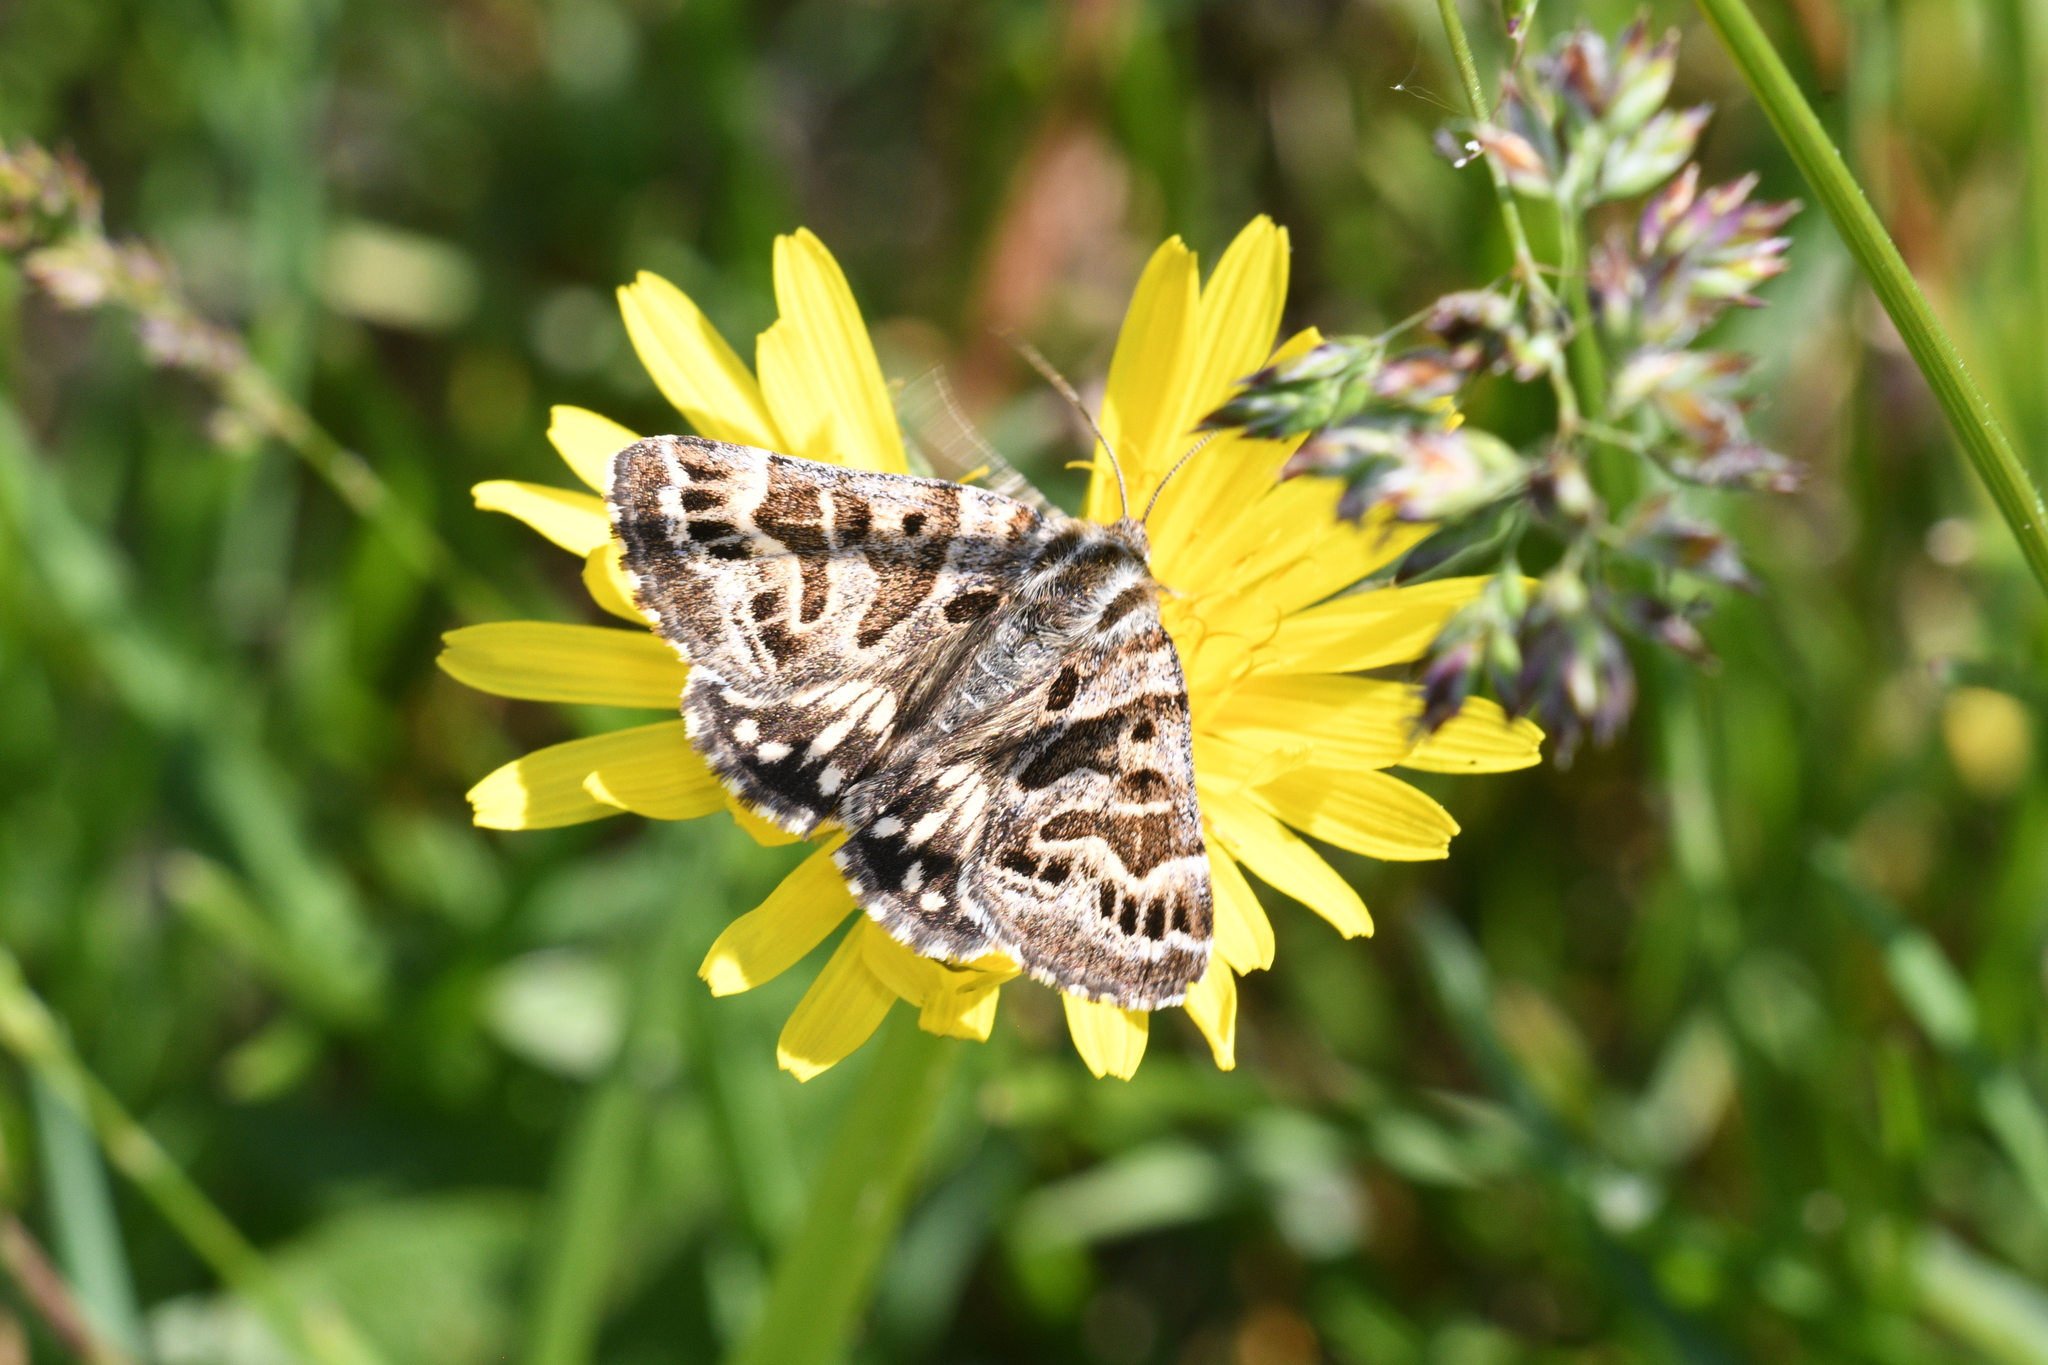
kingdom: Animalia
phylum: Arthropoda
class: Insecta
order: Lepidoptera
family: Erebidae
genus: Callistege
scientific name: Callistege mi
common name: Mother shipton
